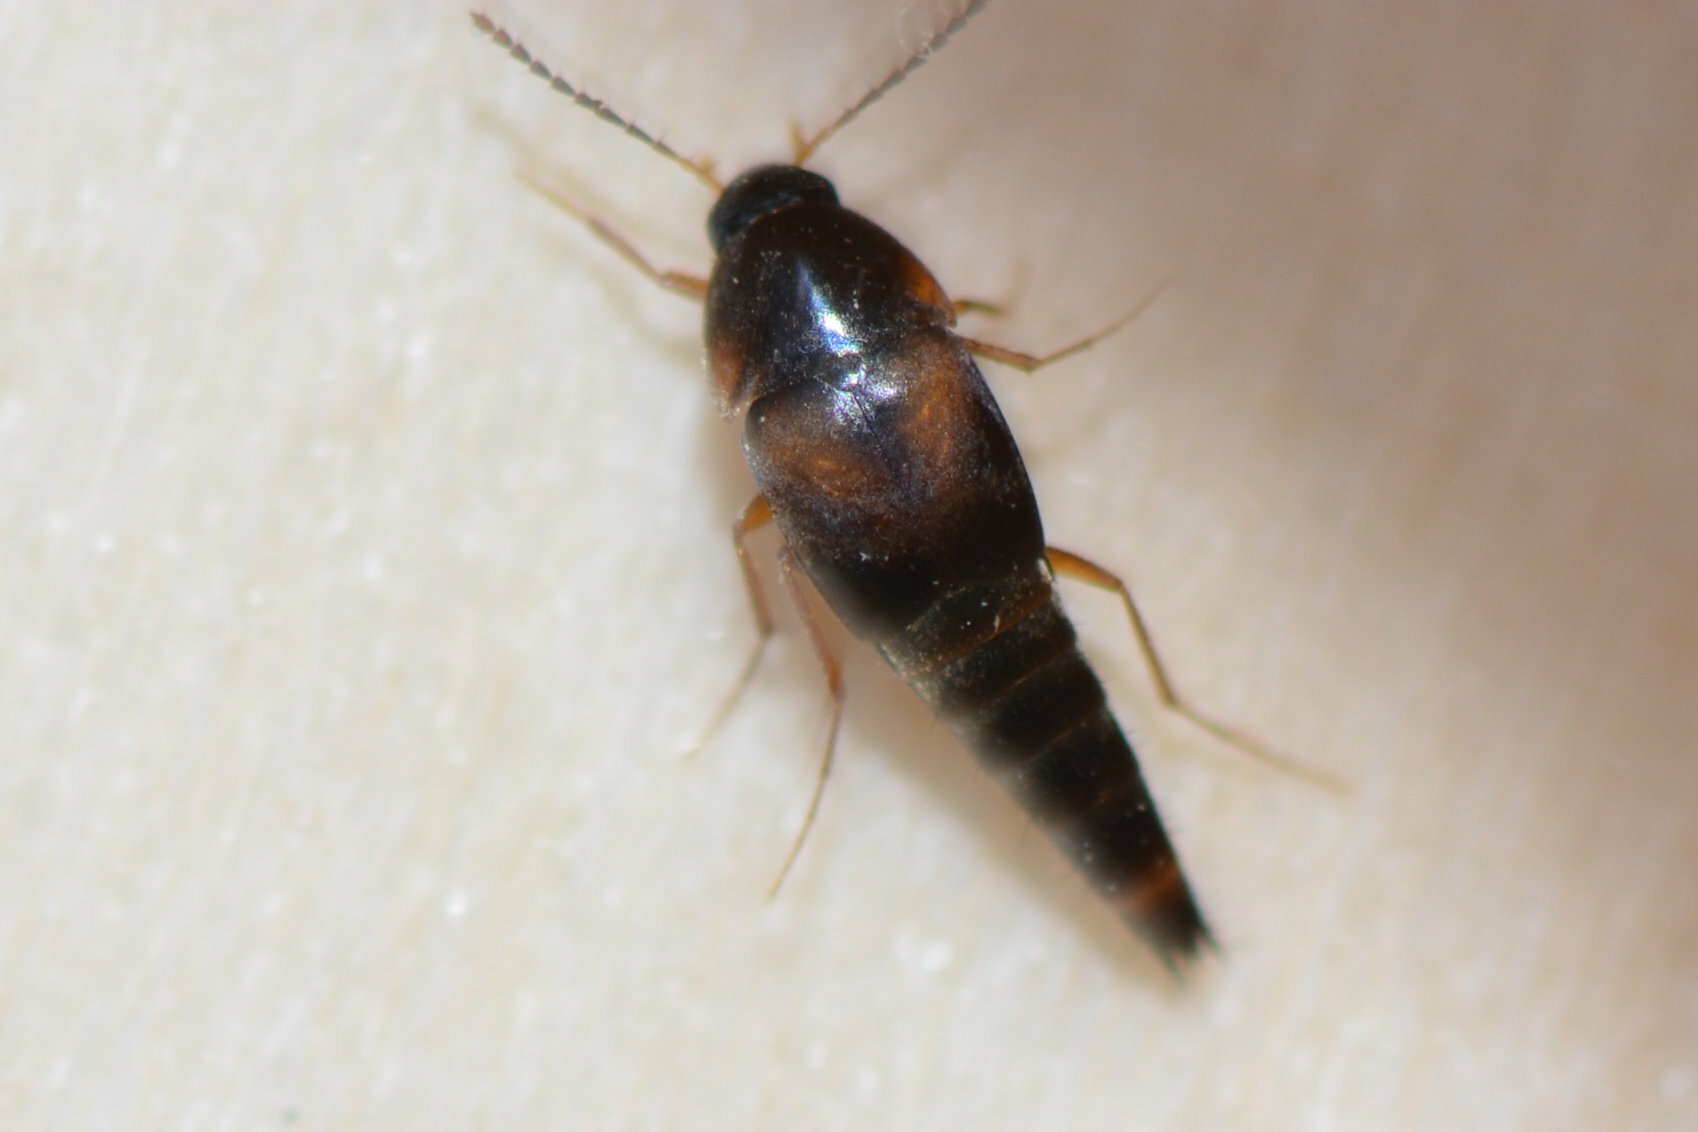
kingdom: Animalia
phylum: Arthropoda
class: Insecta
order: Coleoptera
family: Staphylinidae
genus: Sepedophilus
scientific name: Sepedophilus littoreus
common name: Staph beetle
